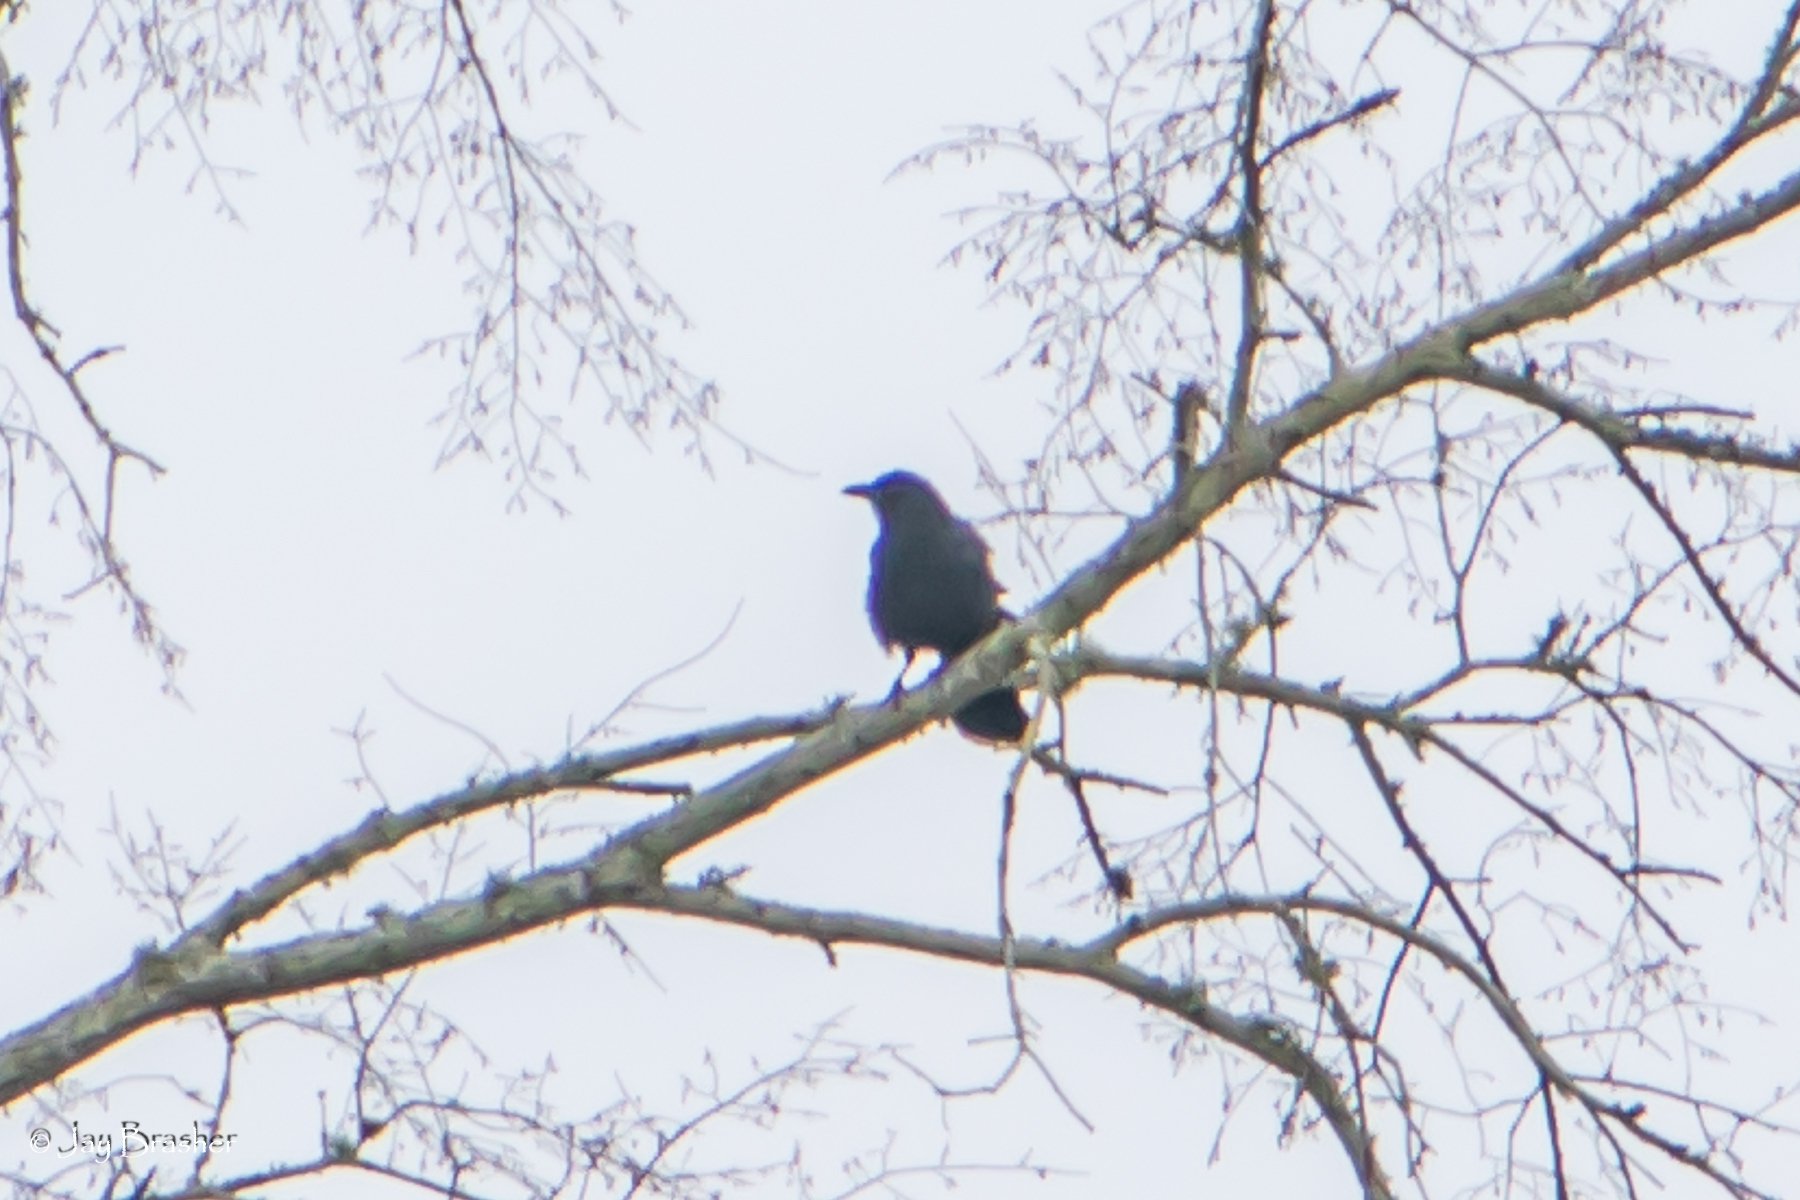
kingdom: Animalia
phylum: Chordata
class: Aves
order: Passeriformes
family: Corvidae
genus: Corvus
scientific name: Corvus brachyrhynchos
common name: American crow
